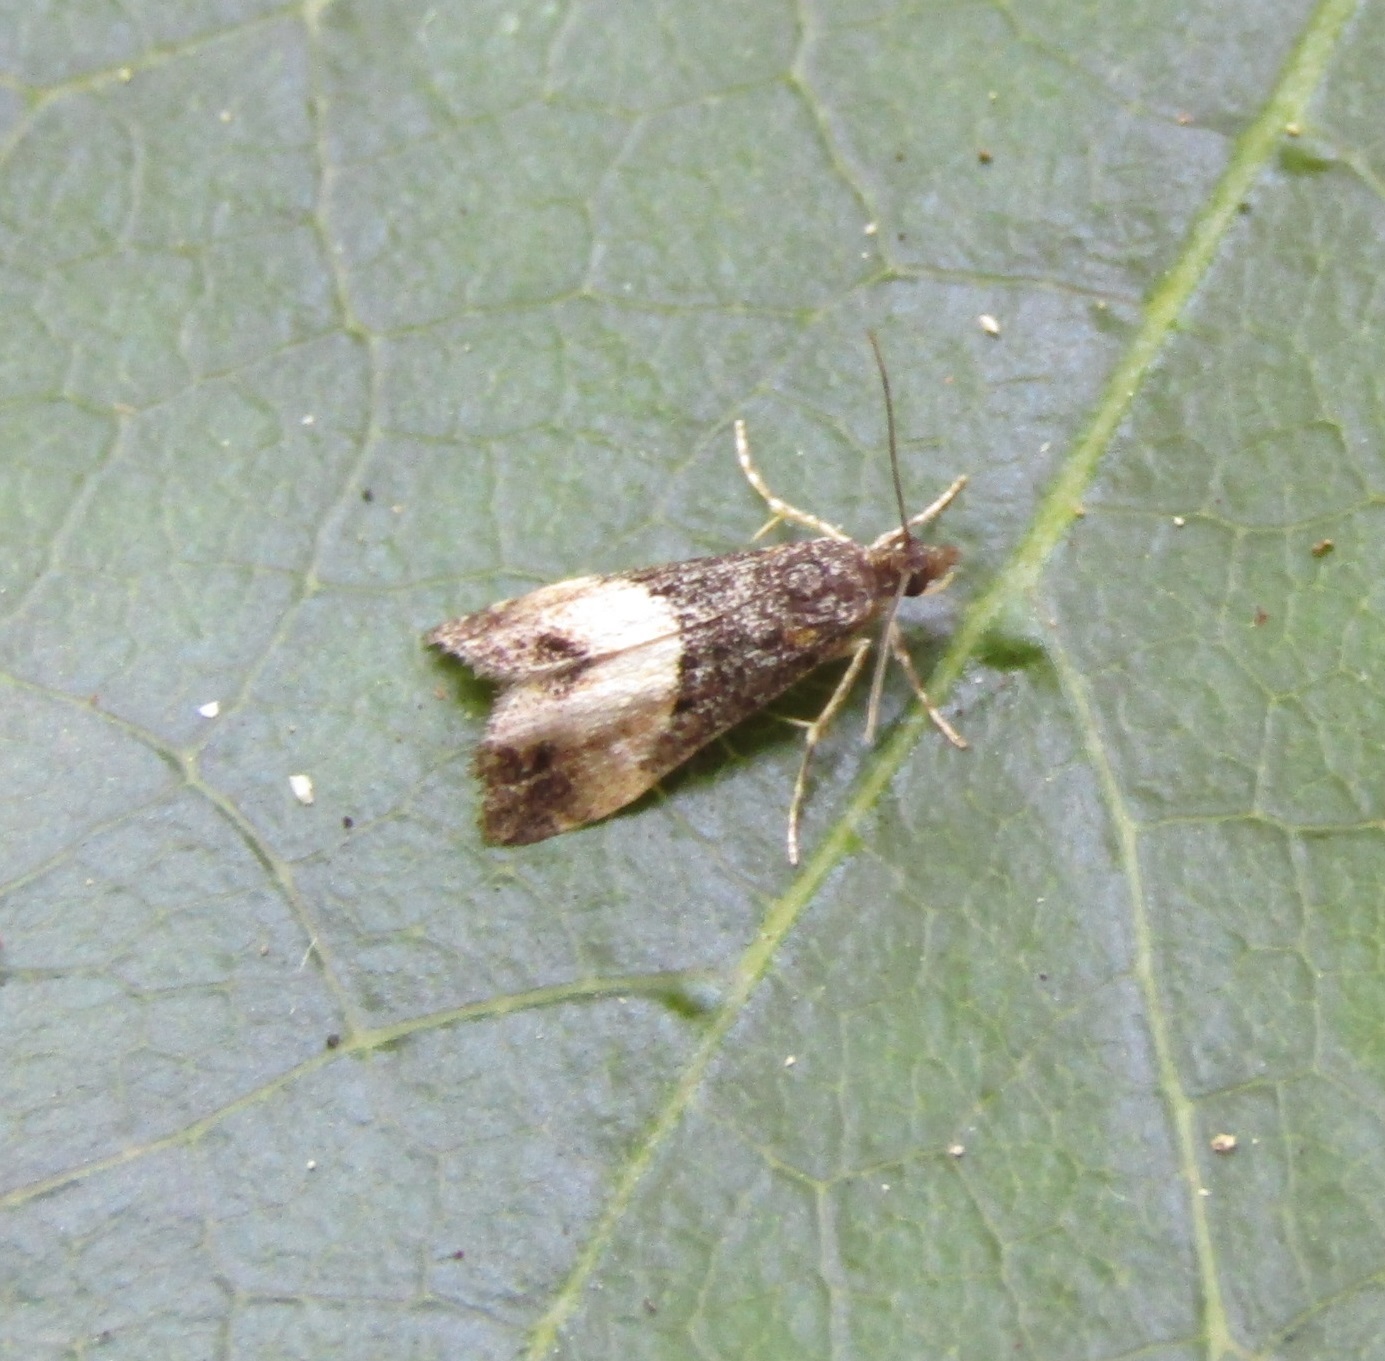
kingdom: Animalia
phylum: Arthropoda
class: Insecta
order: Lepidoptera
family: Crambidae
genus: Eudonia
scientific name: Eudonia chlamydota
